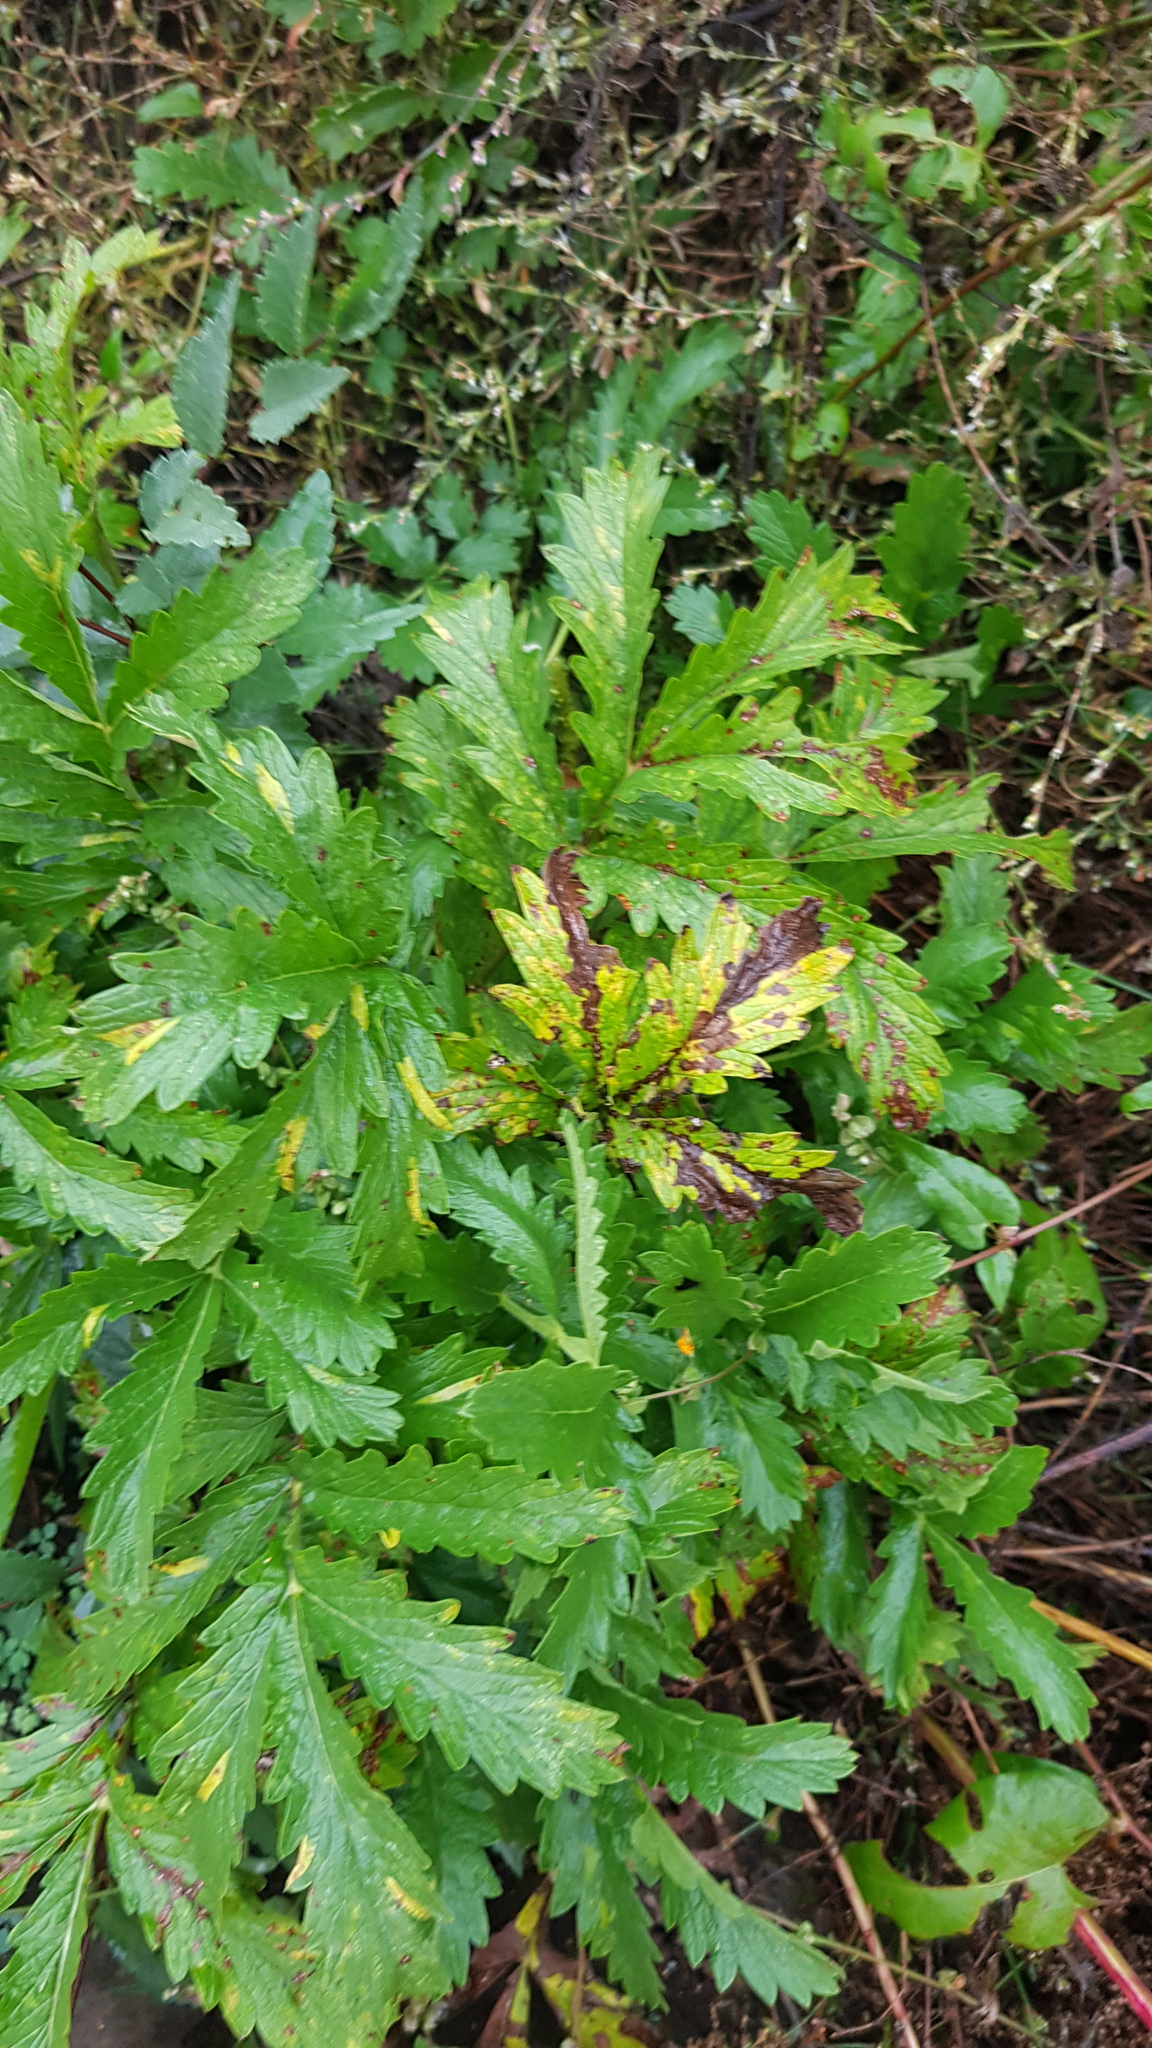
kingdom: Plantae
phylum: Tracheophyta
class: Magnoliopsida
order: Rosales
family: Rosaceae
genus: Potentilla
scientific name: Potentilla longifolia
